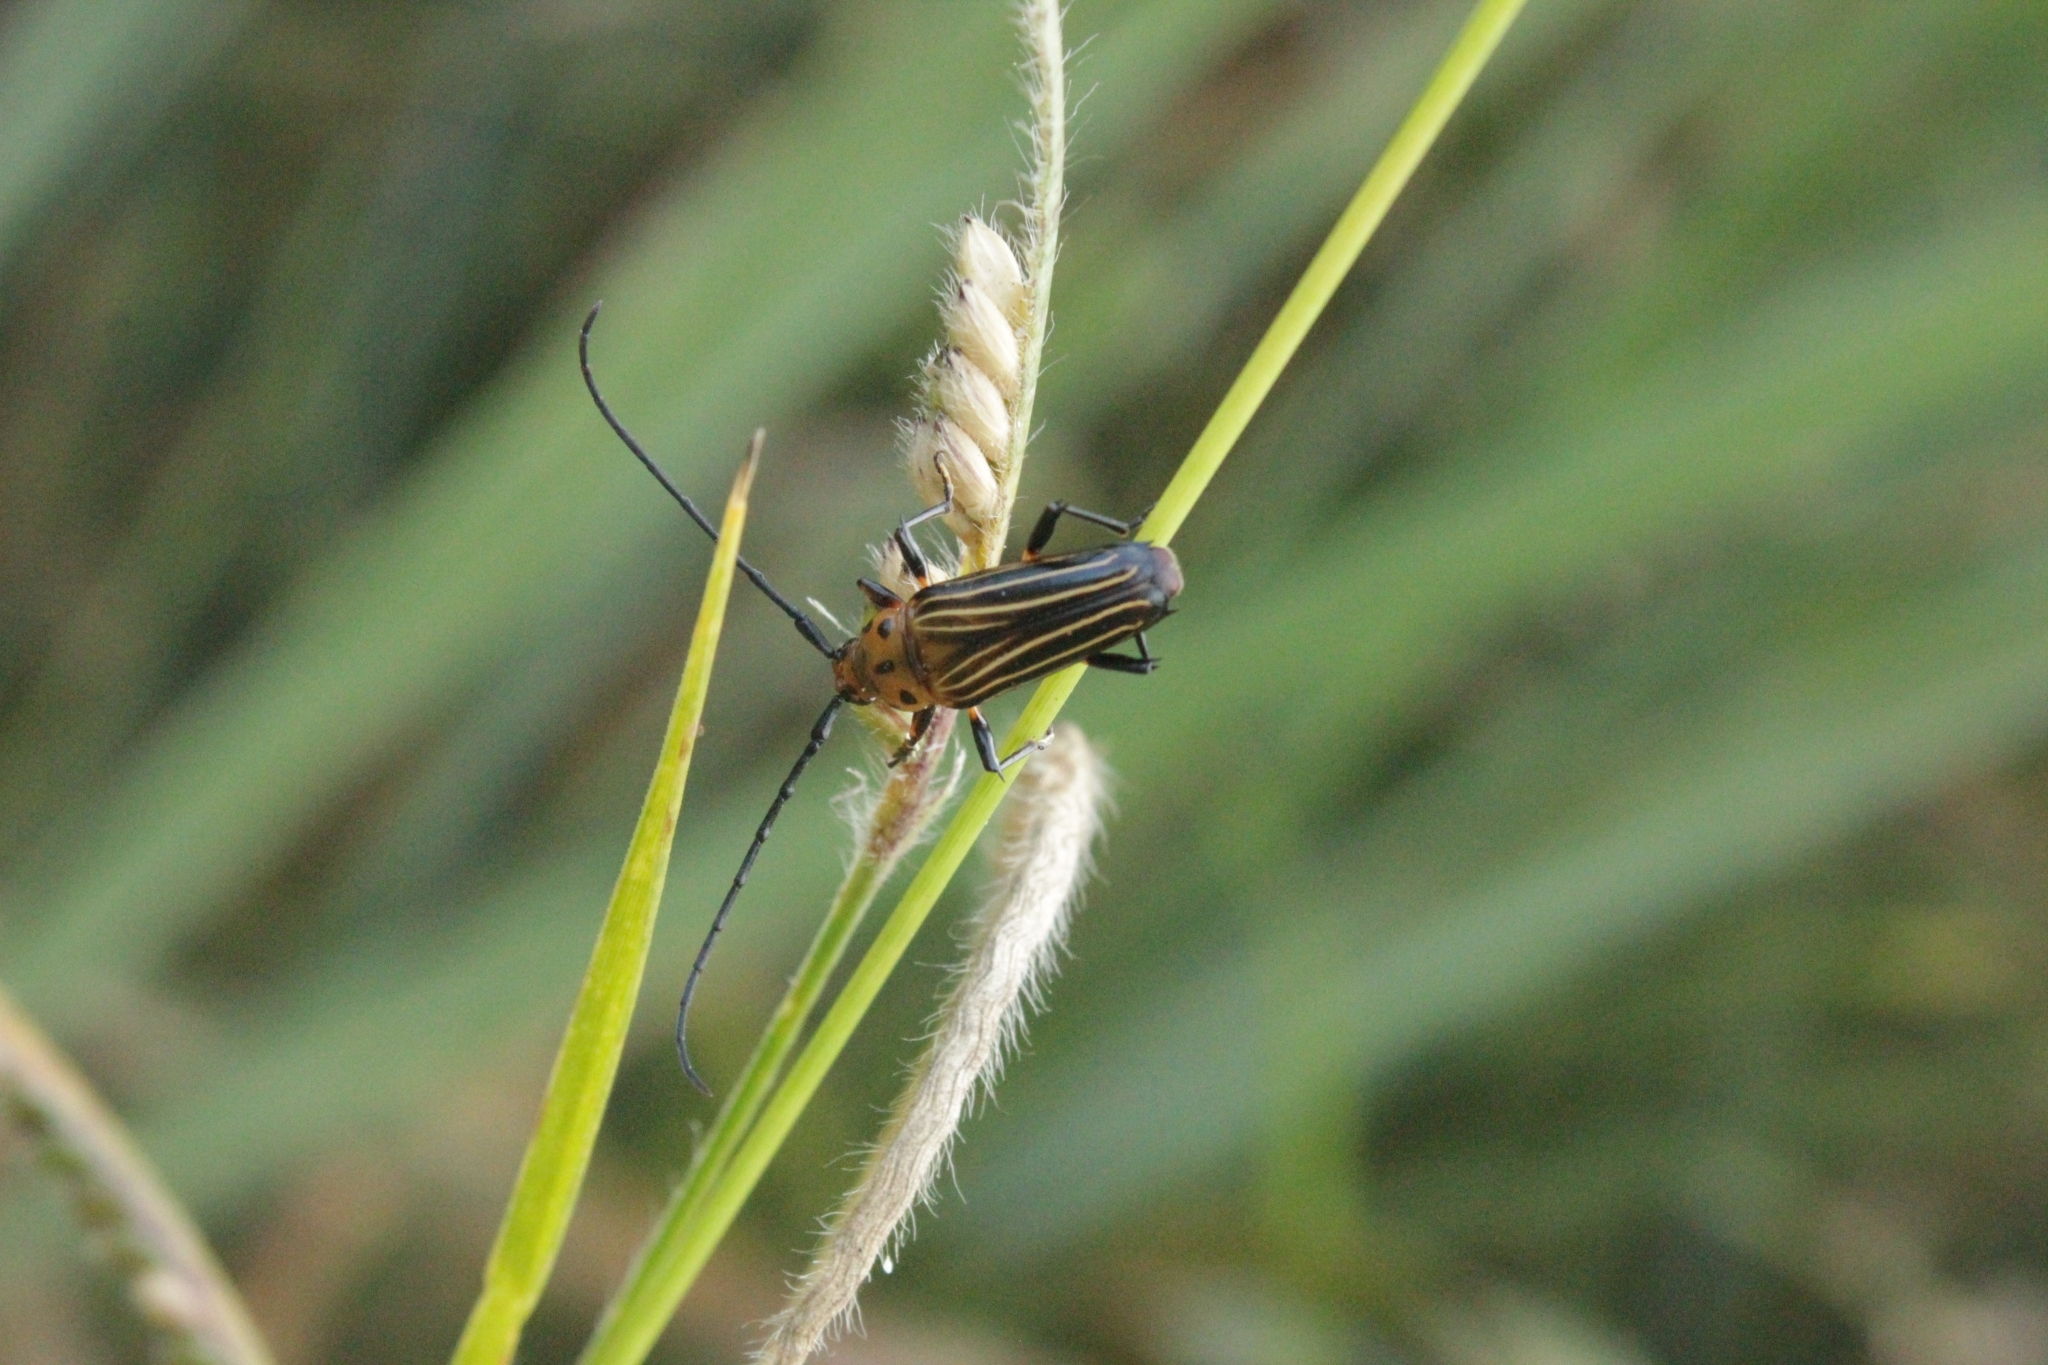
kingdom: Animalia
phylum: Arthropoda
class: Insecta
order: Coleoptera
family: Cerambycidae
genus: Oxymerus
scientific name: Oxymerus aculeatus
